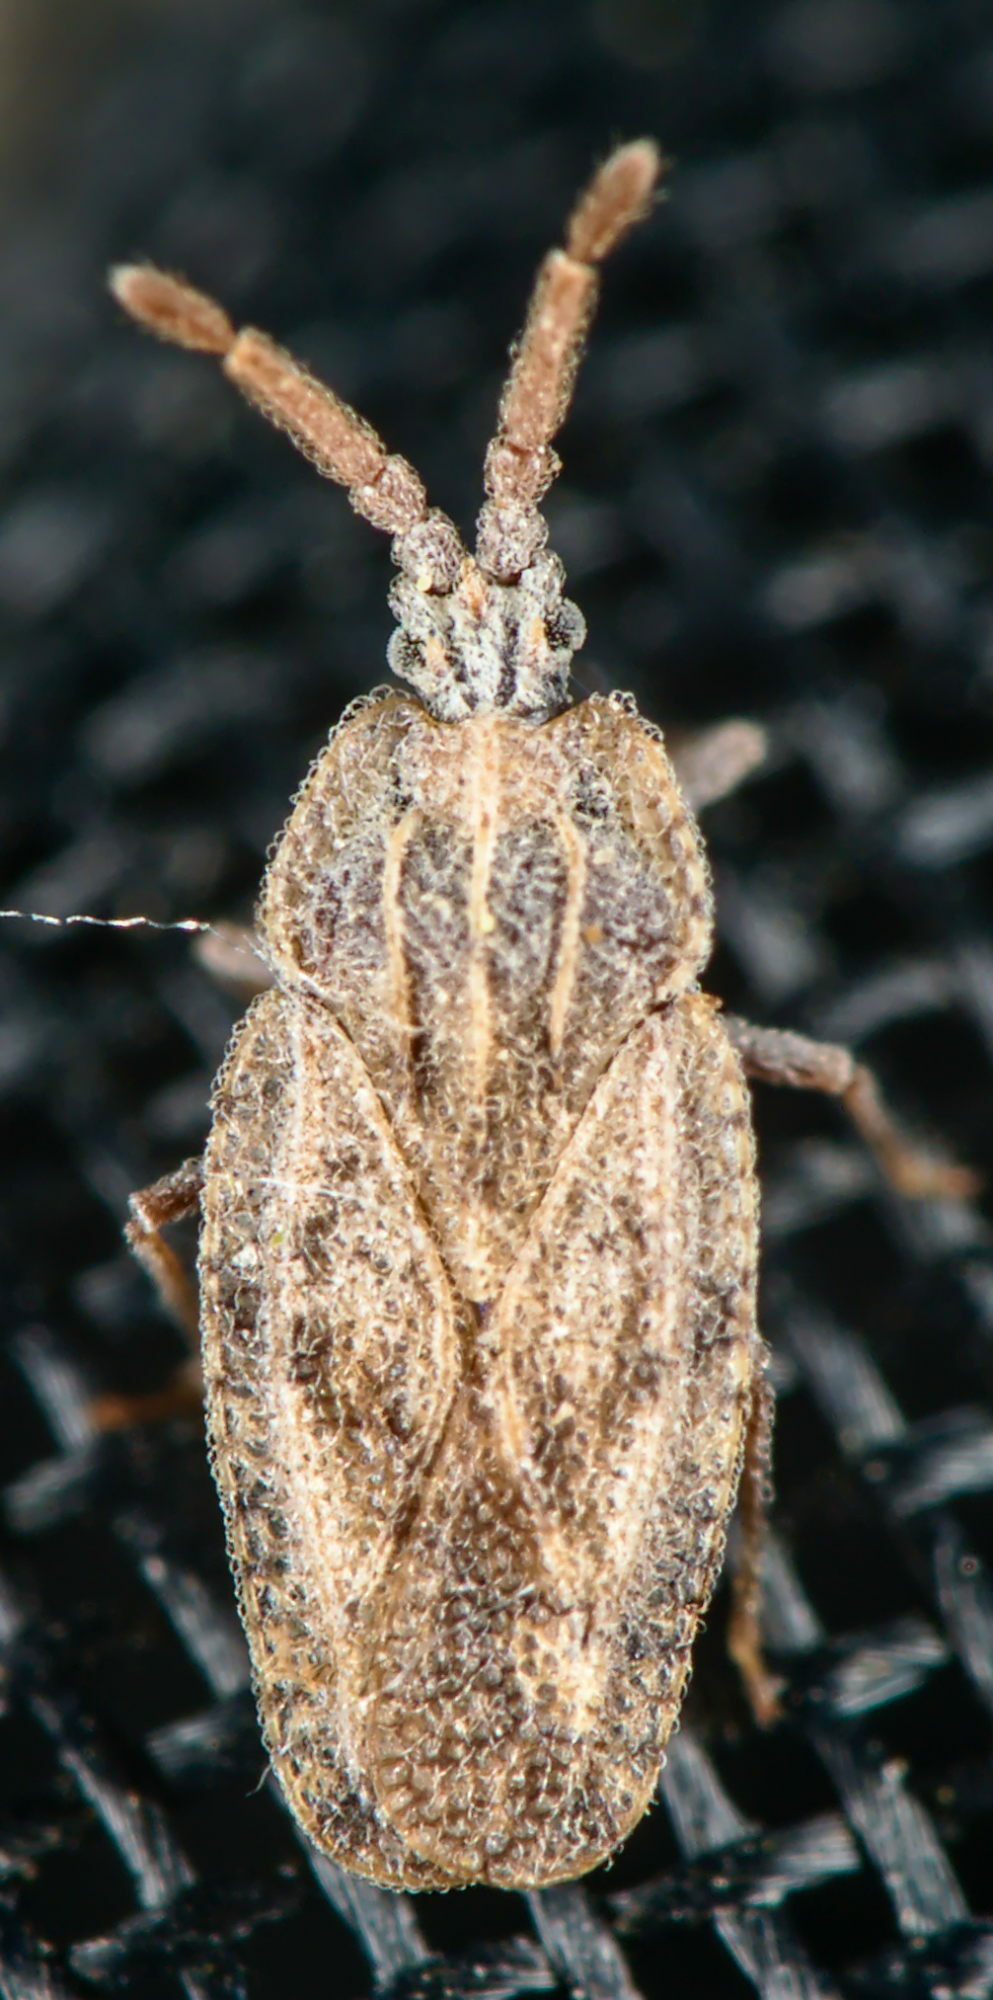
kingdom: Animalia
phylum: Arthropoda
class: Insecta
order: Hemiptera
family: Tingidae
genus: Tingis
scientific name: Tingis crispata
